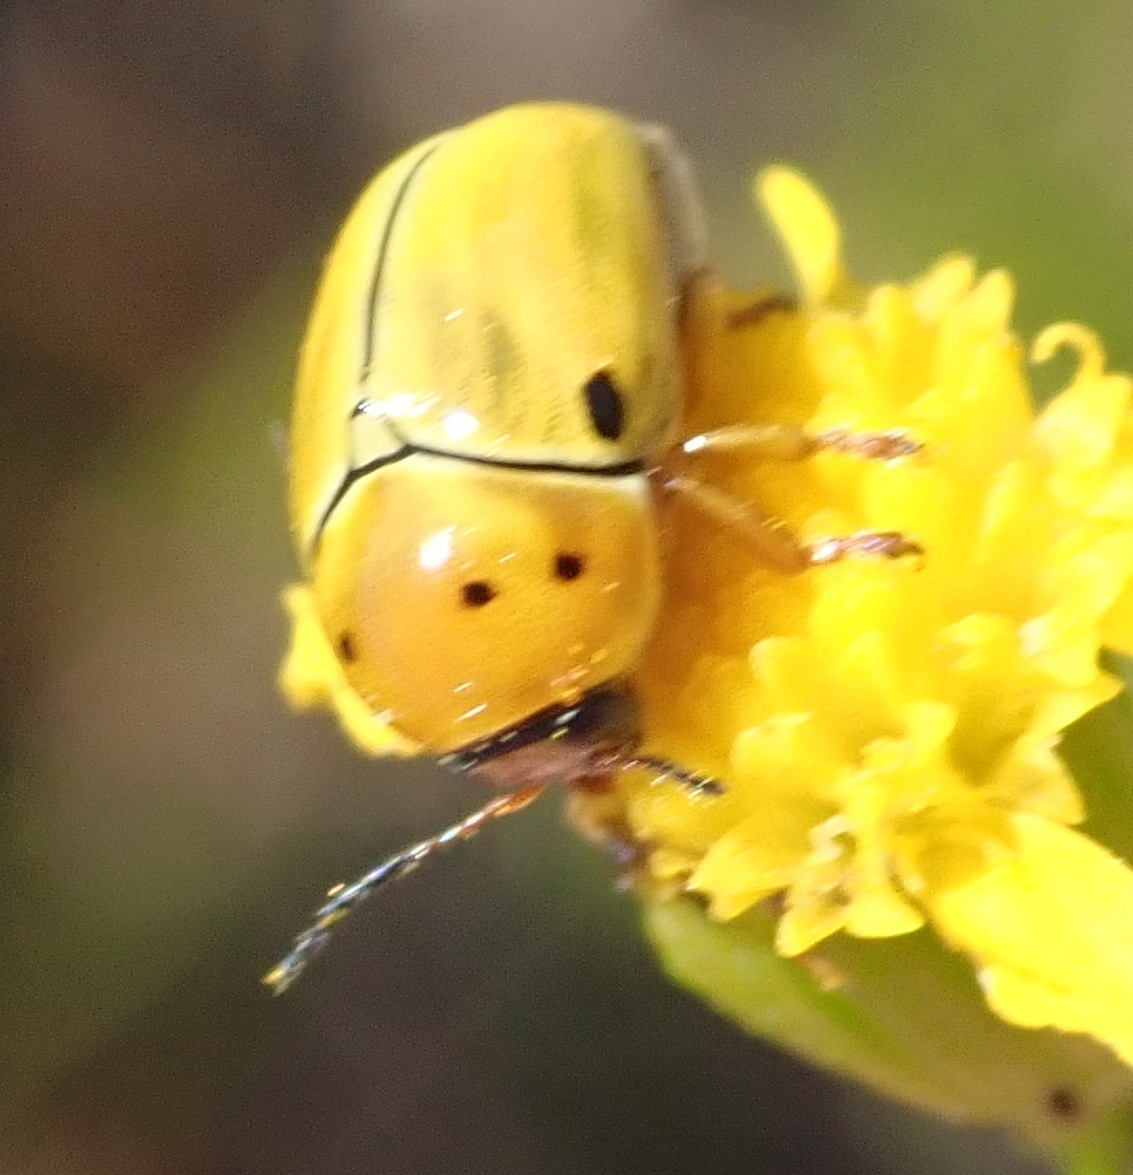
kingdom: Animalia
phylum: Arthropoda
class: Insecta
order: Coleoptera
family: Chrysomelidae
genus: Cryptocephalus
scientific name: Cryptocephalus
